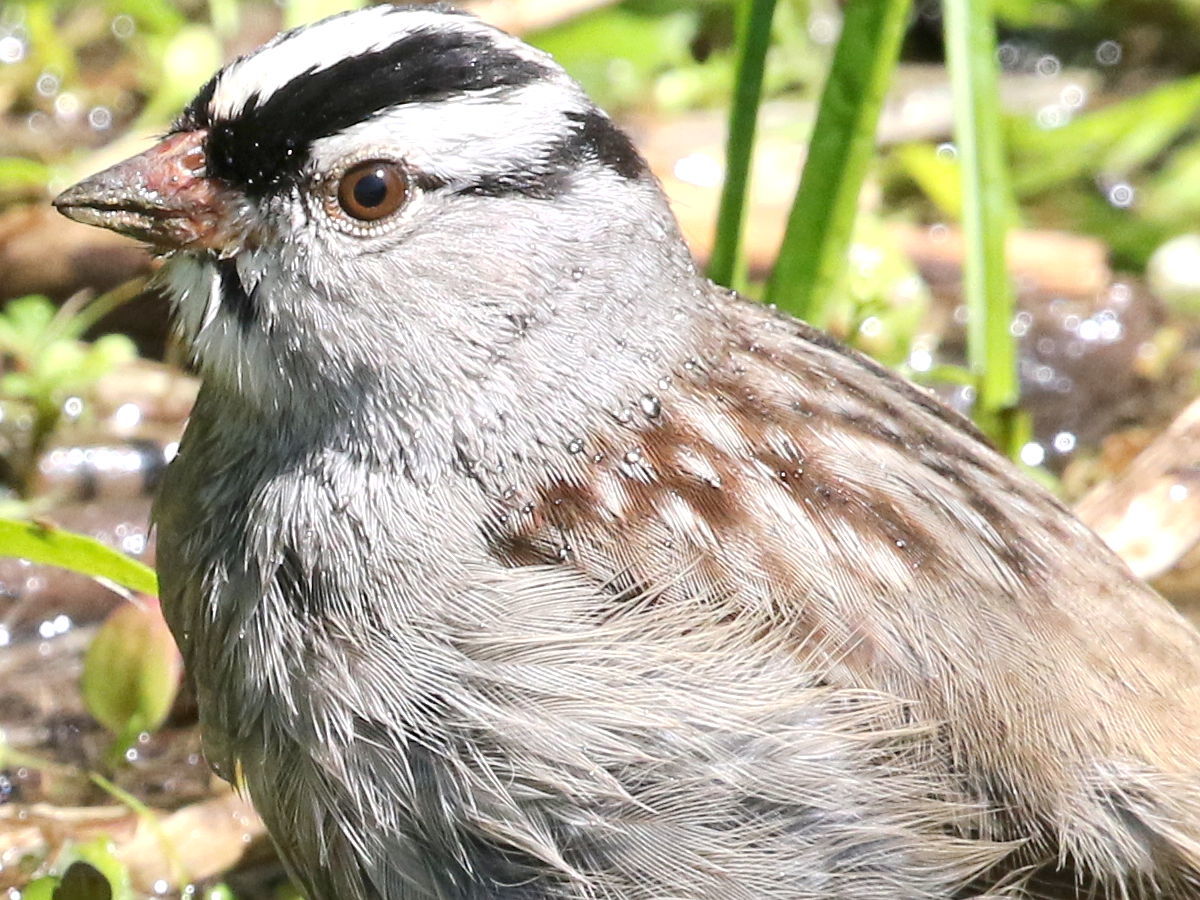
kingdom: Animalia
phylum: Chordata
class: Aves
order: Passeriformes
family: Passerellidae
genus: Zonotrichia
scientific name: Zonotrichia leucophrys
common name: White-crowned sparrow
